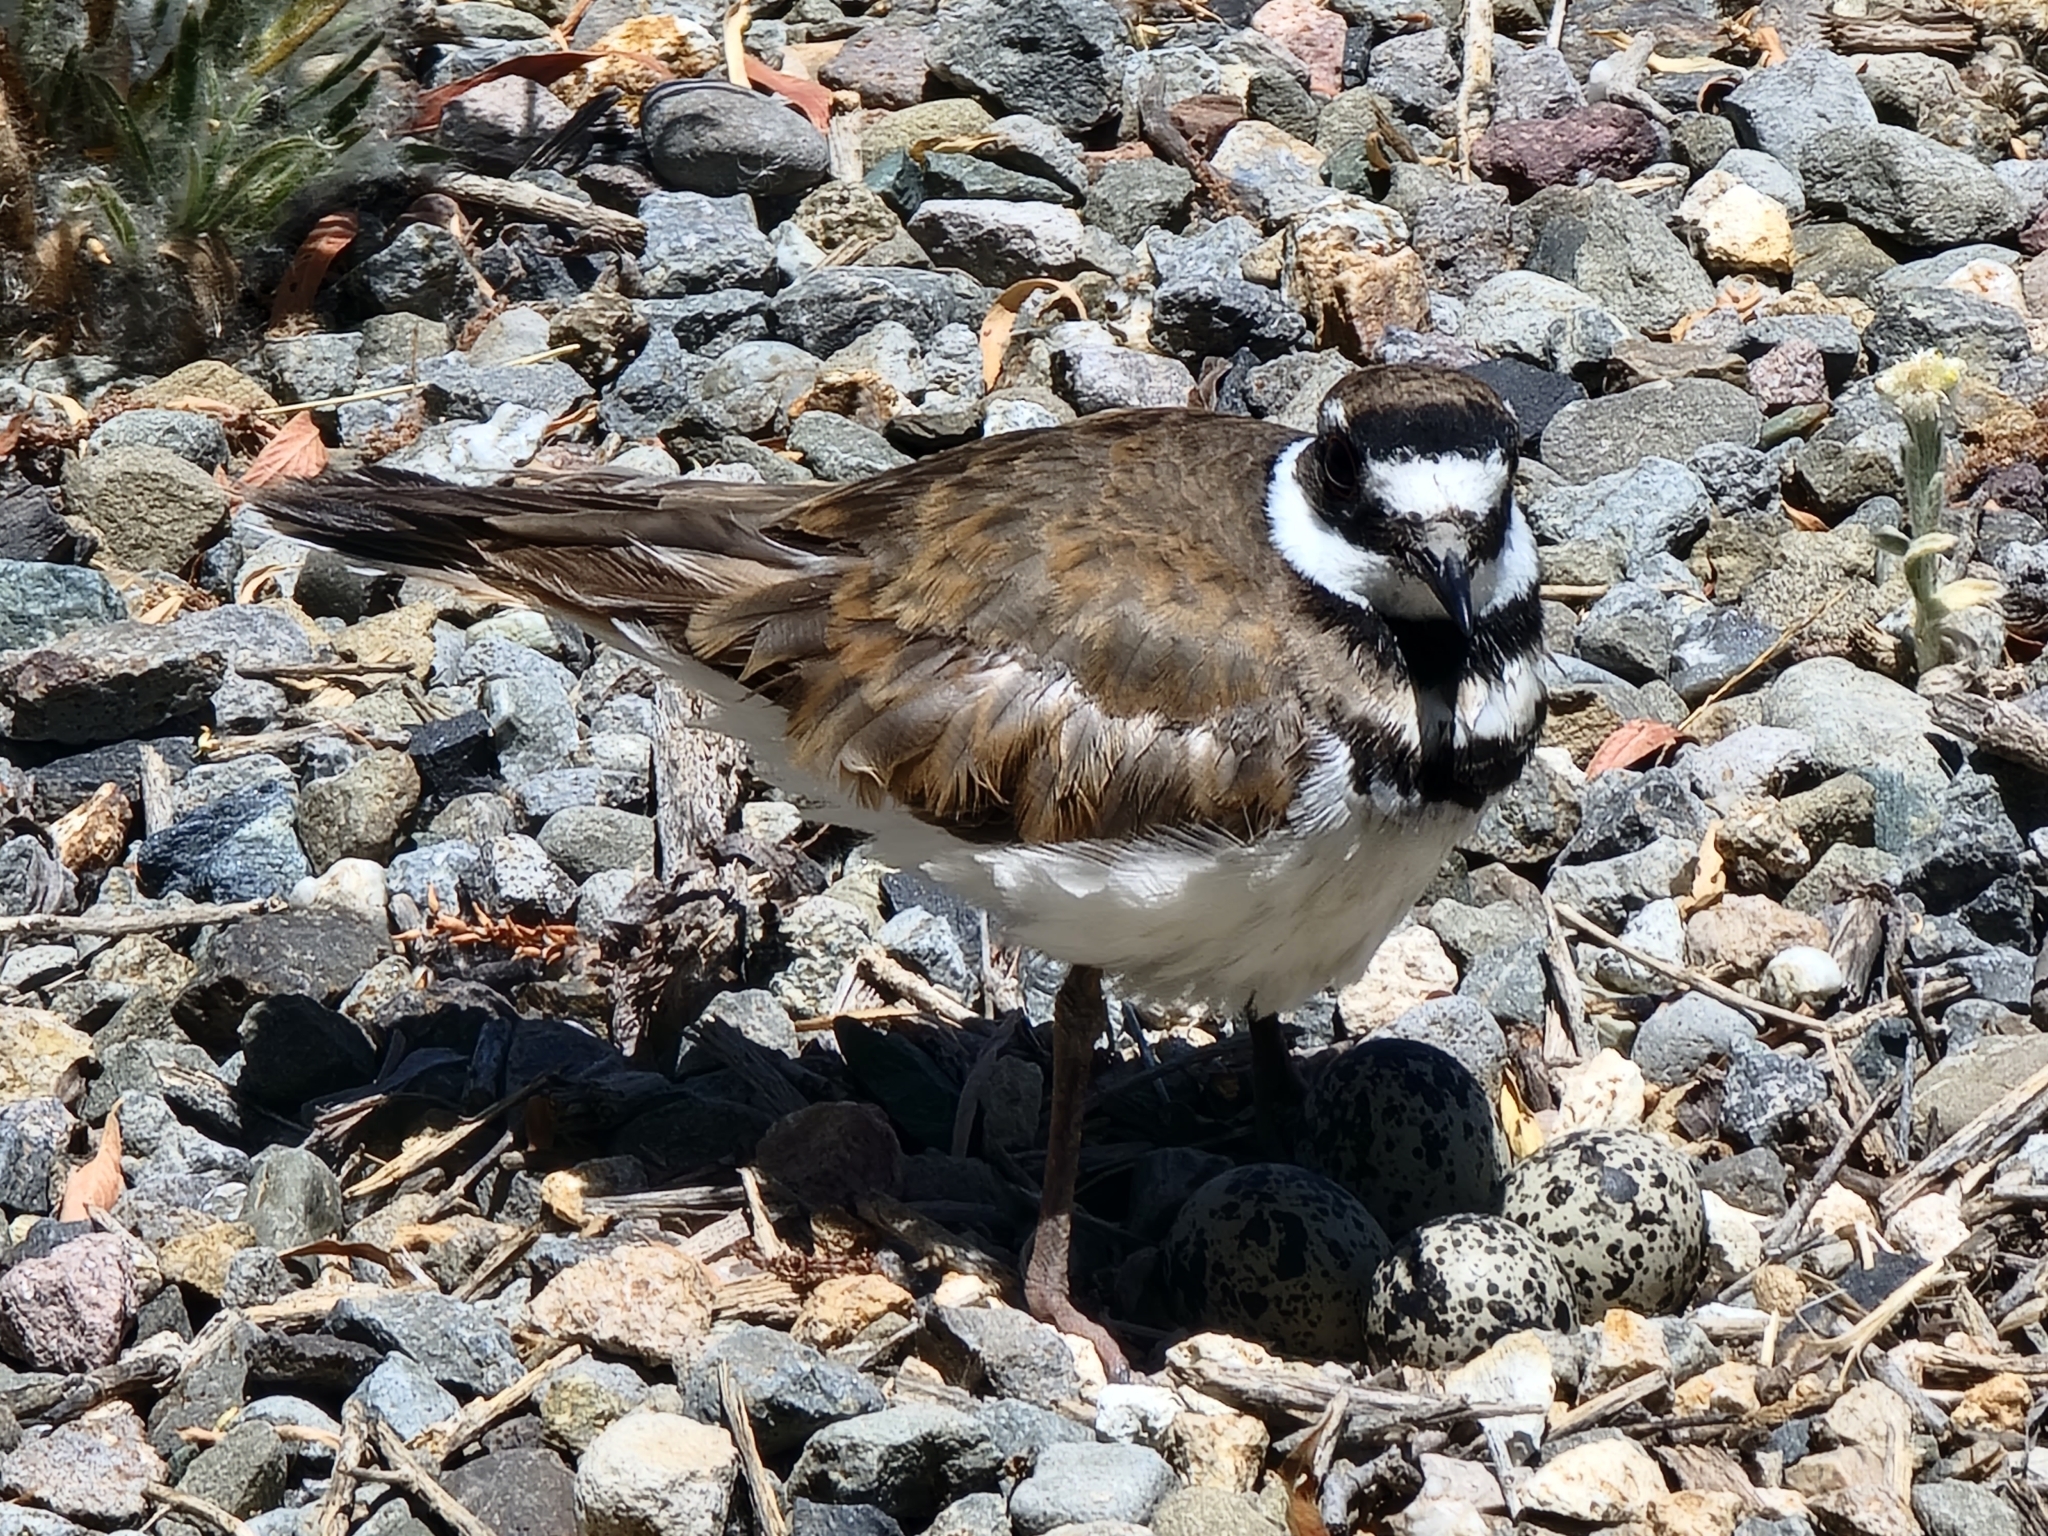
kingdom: Animalia
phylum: Chordata
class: Aves
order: Charadriiformes
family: Charadriidae
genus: Charadrius
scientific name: Charadrius vociferus
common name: Killdeer
